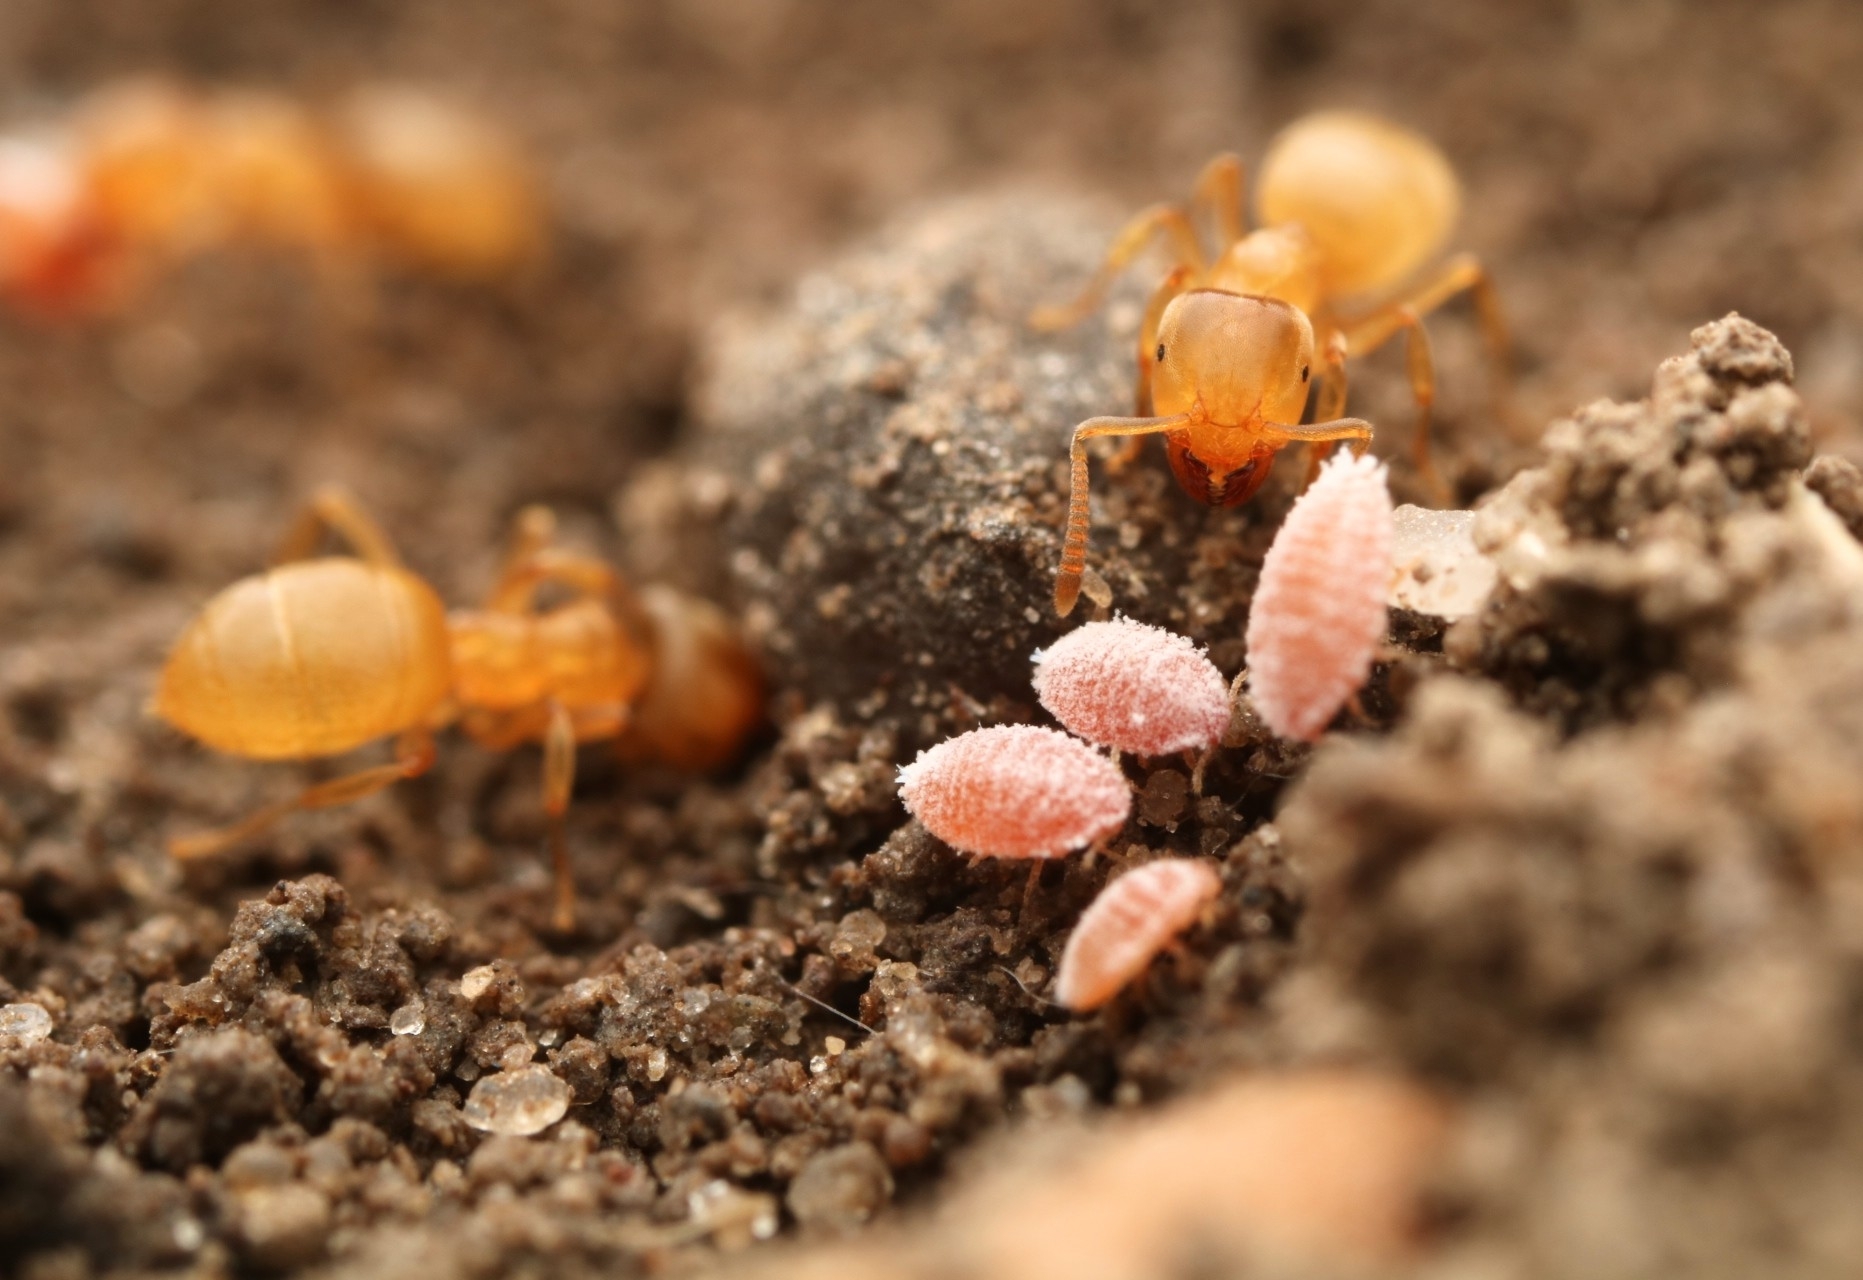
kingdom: Animalia
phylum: Arthropoda
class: Insecta
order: Hymenoptera
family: Formicidae
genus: Lasius
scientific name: Lasius nearcticus
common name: New world fuzzy ant
